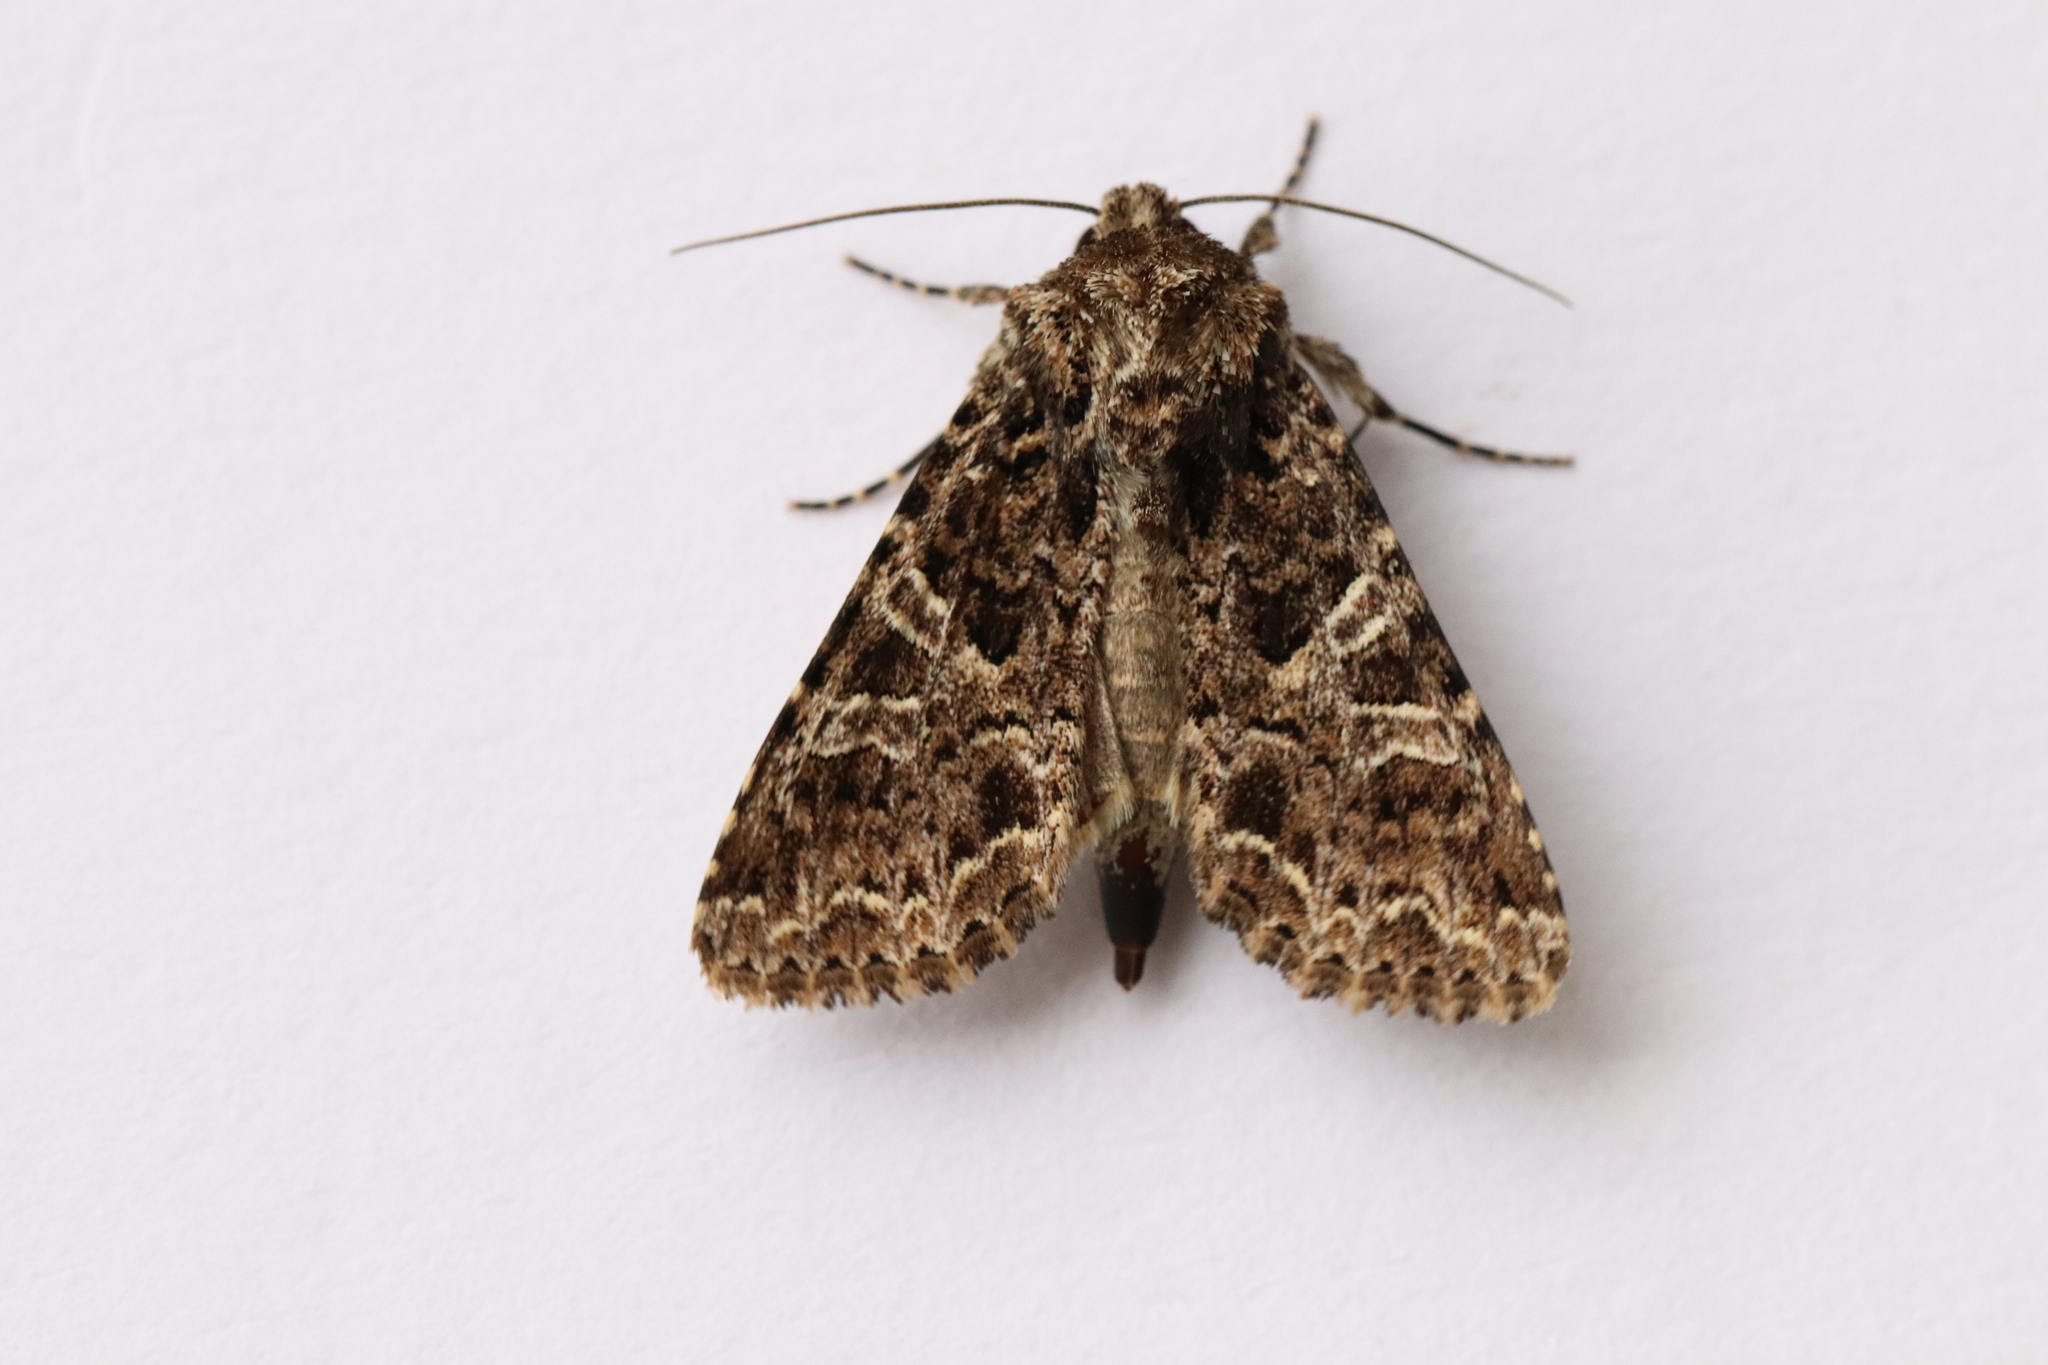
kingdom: Animalia
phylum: Arthropoda
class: Insecta
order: Lepidoptera
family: Noctuidae
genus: Hadena
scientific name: Hadena capsincola
